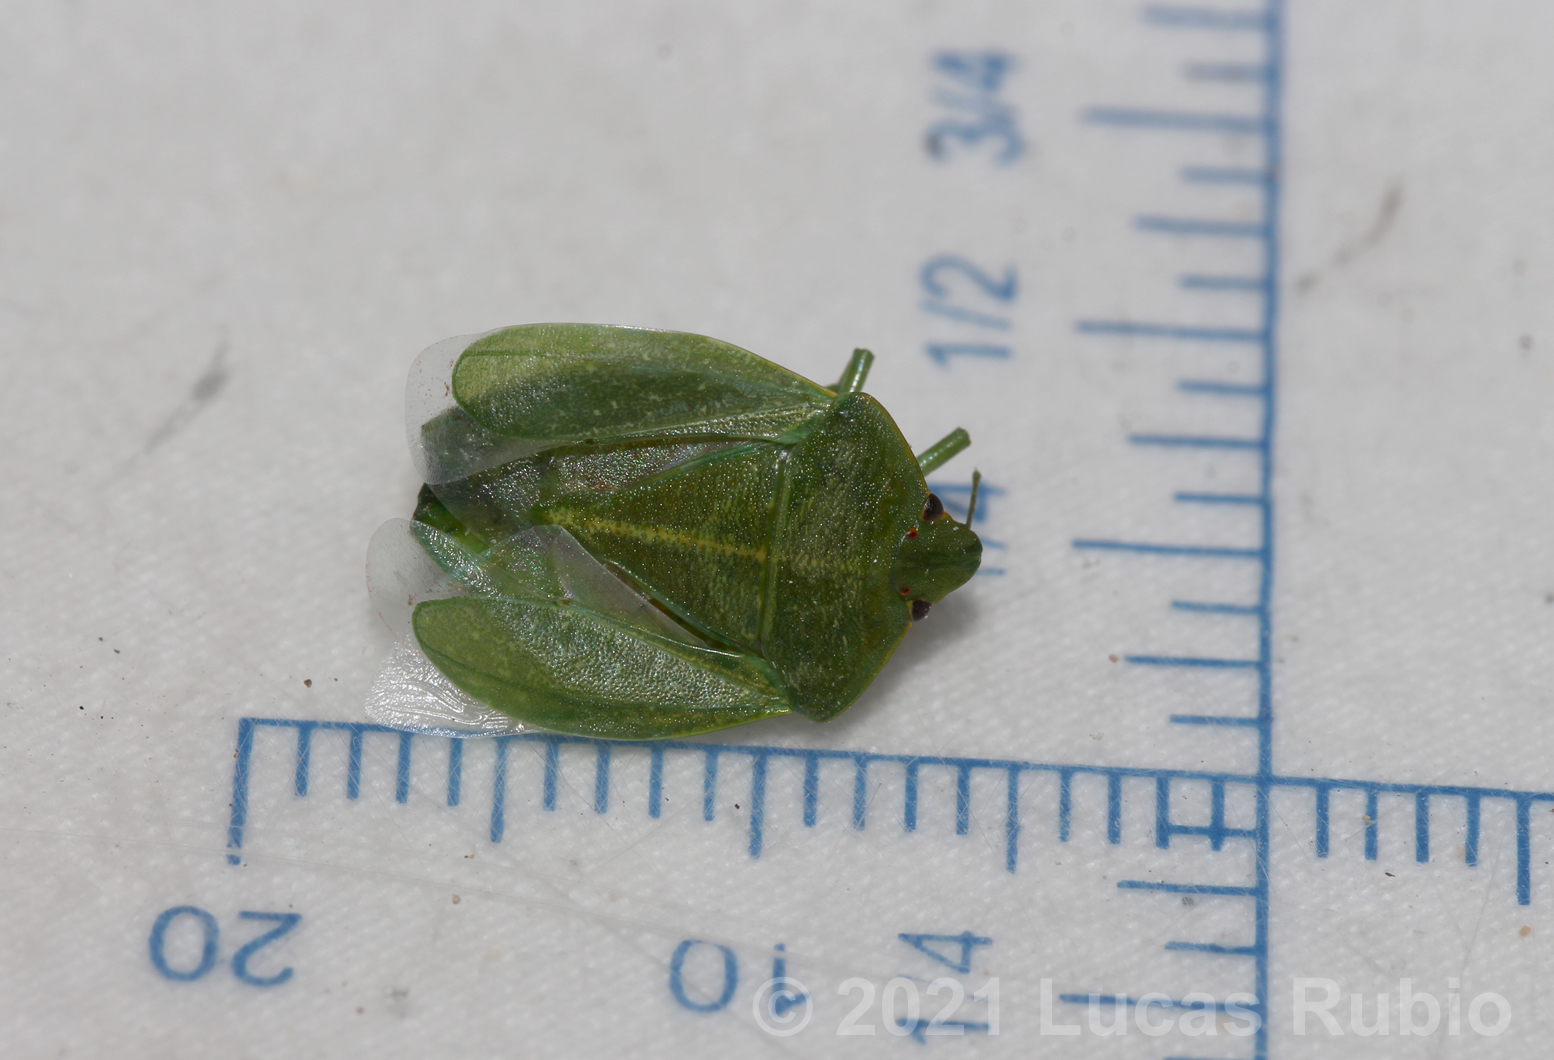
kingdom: Animalia
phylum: Arthropoda
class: Insecta
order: Hemiptera
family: Pentatomidae
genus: Chinavia
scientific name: Chinavia
